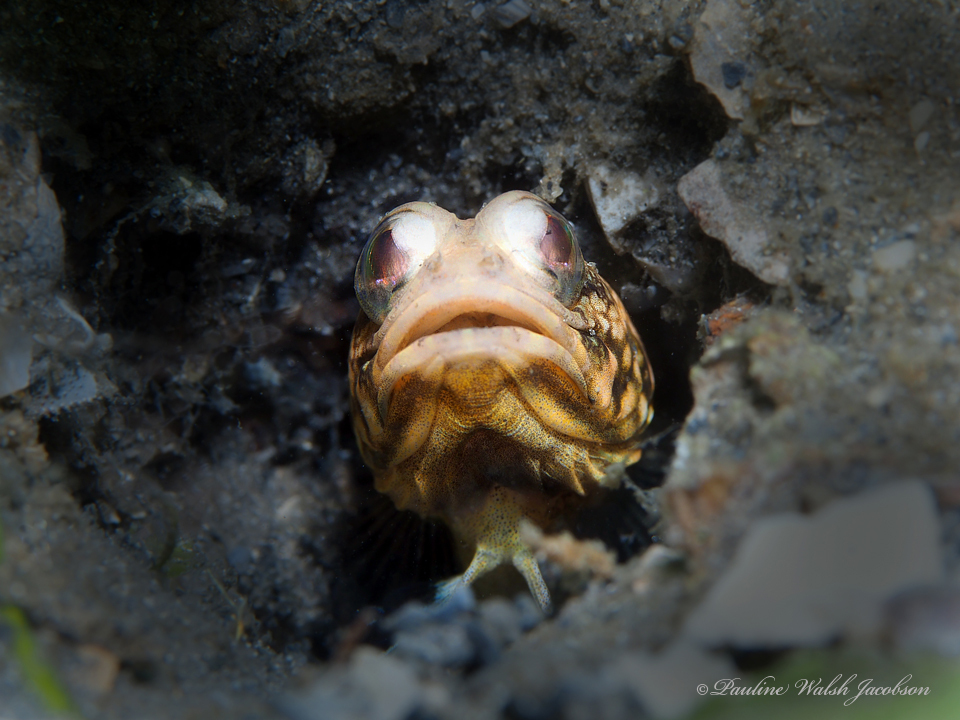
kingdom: Animalia
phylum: Chordata
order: Perciformes
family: Opistognathidae
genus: Opistognathus
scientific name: Opistognathus macrognathus
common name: Banded jawfish
